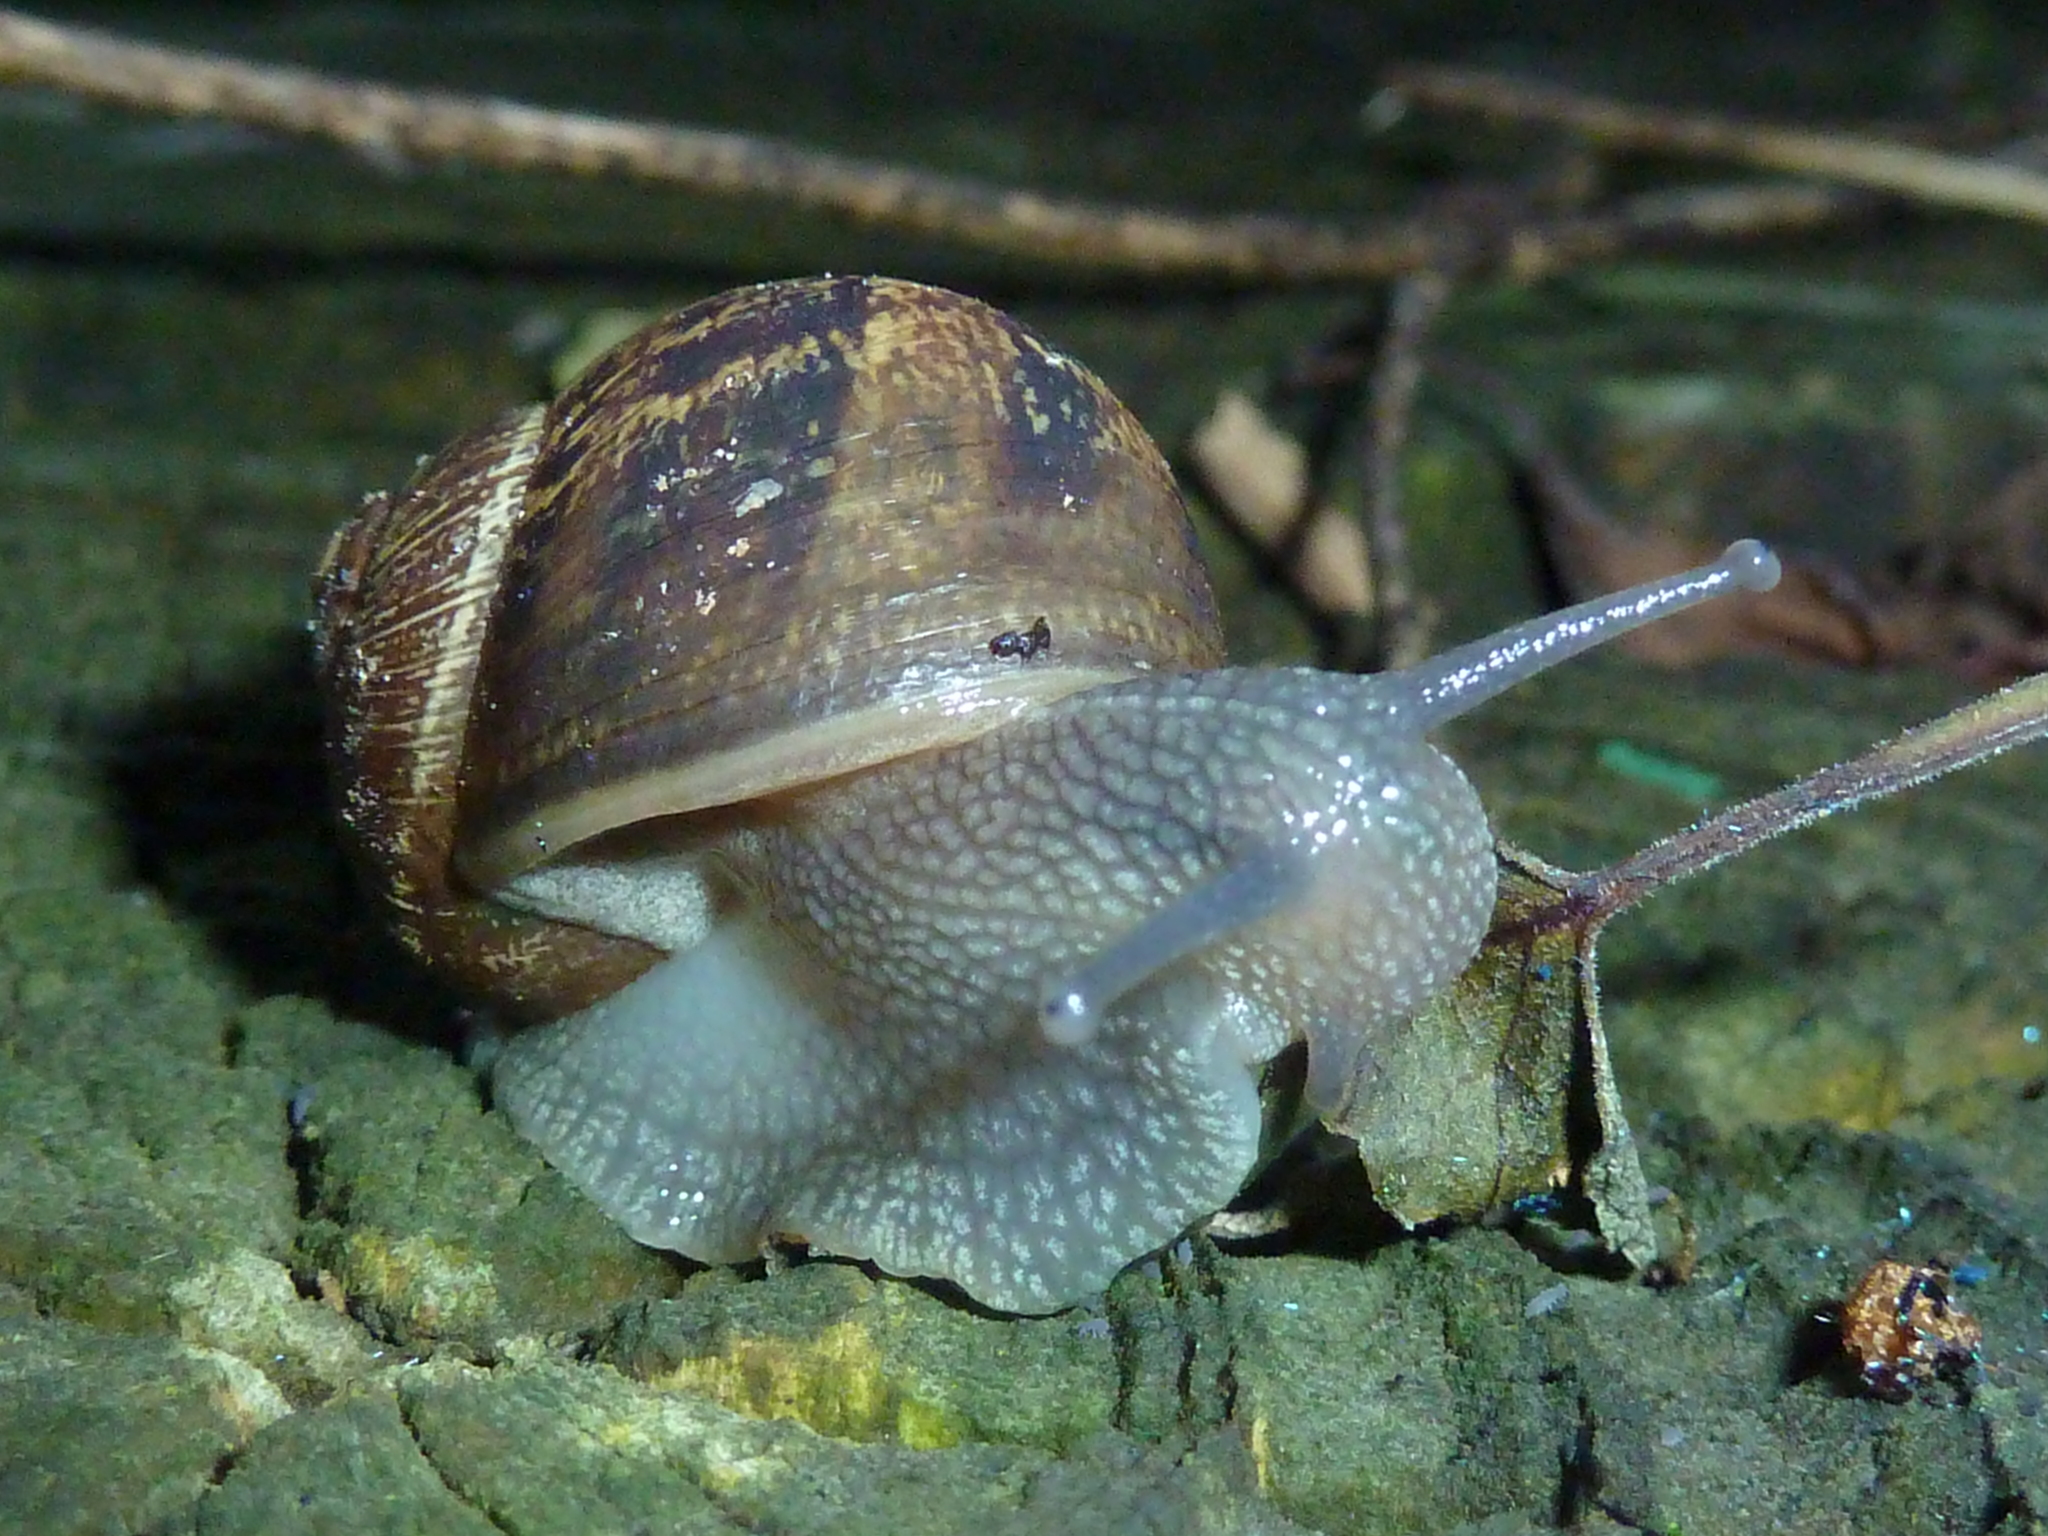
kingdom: Animalia
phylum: Mollusca
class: Gastropoda
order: Stylommatophora
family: Helicidae
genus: Cornu
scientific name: Cornu aspersum
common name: Brown garden snail
